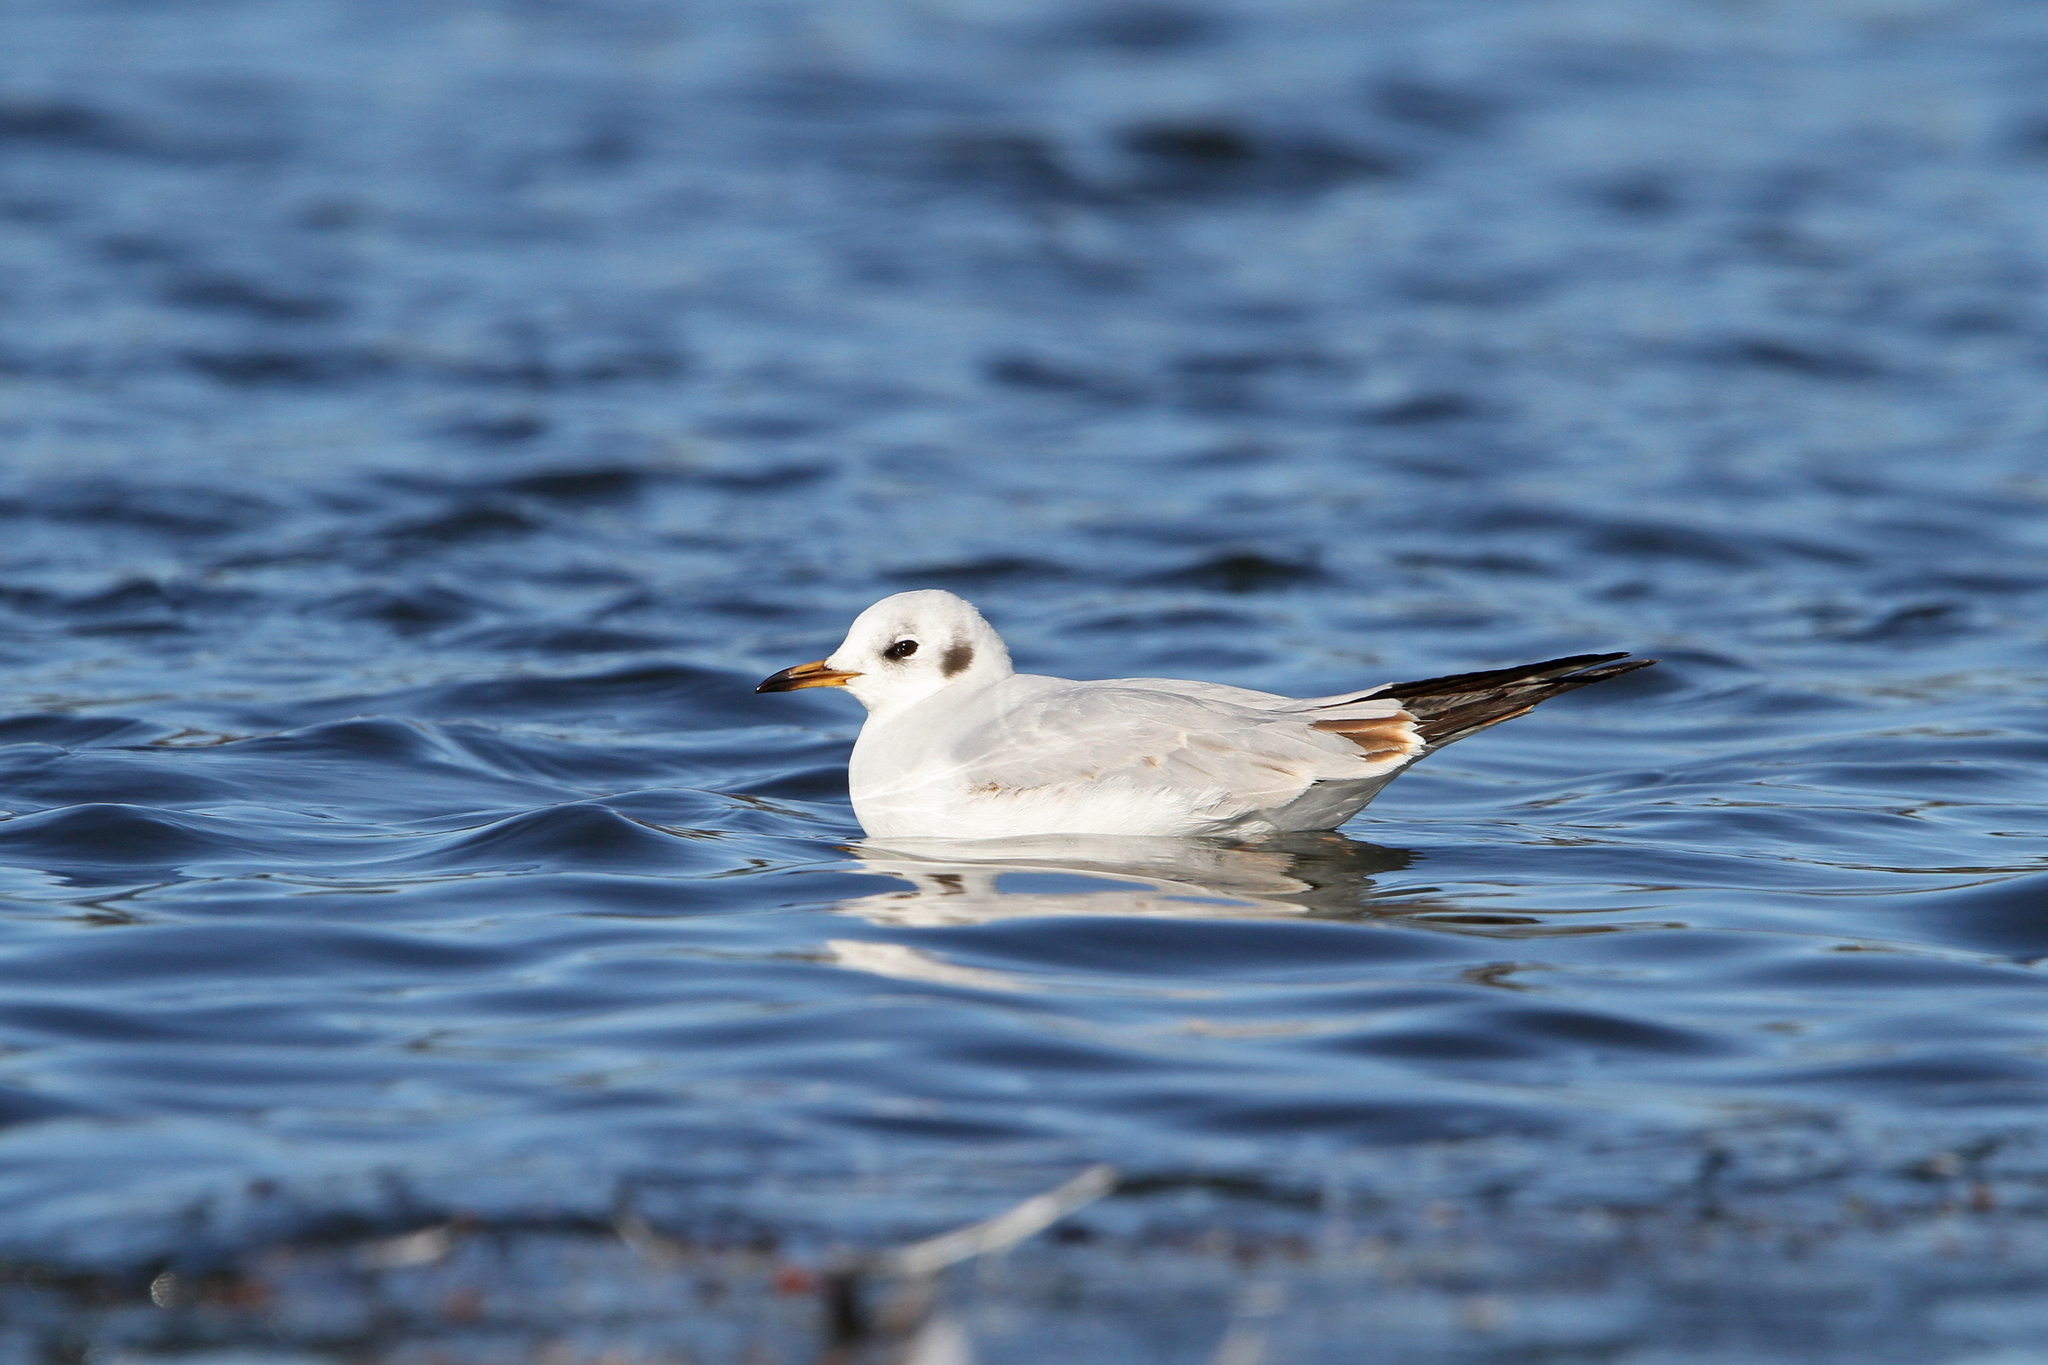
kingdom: Animalia
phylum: Chordata
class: Aves
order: Charadriiformes
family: Laridae
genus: Chroicocephalus
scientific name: Chroicocephalus ridibundus
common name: Black-headed gull
